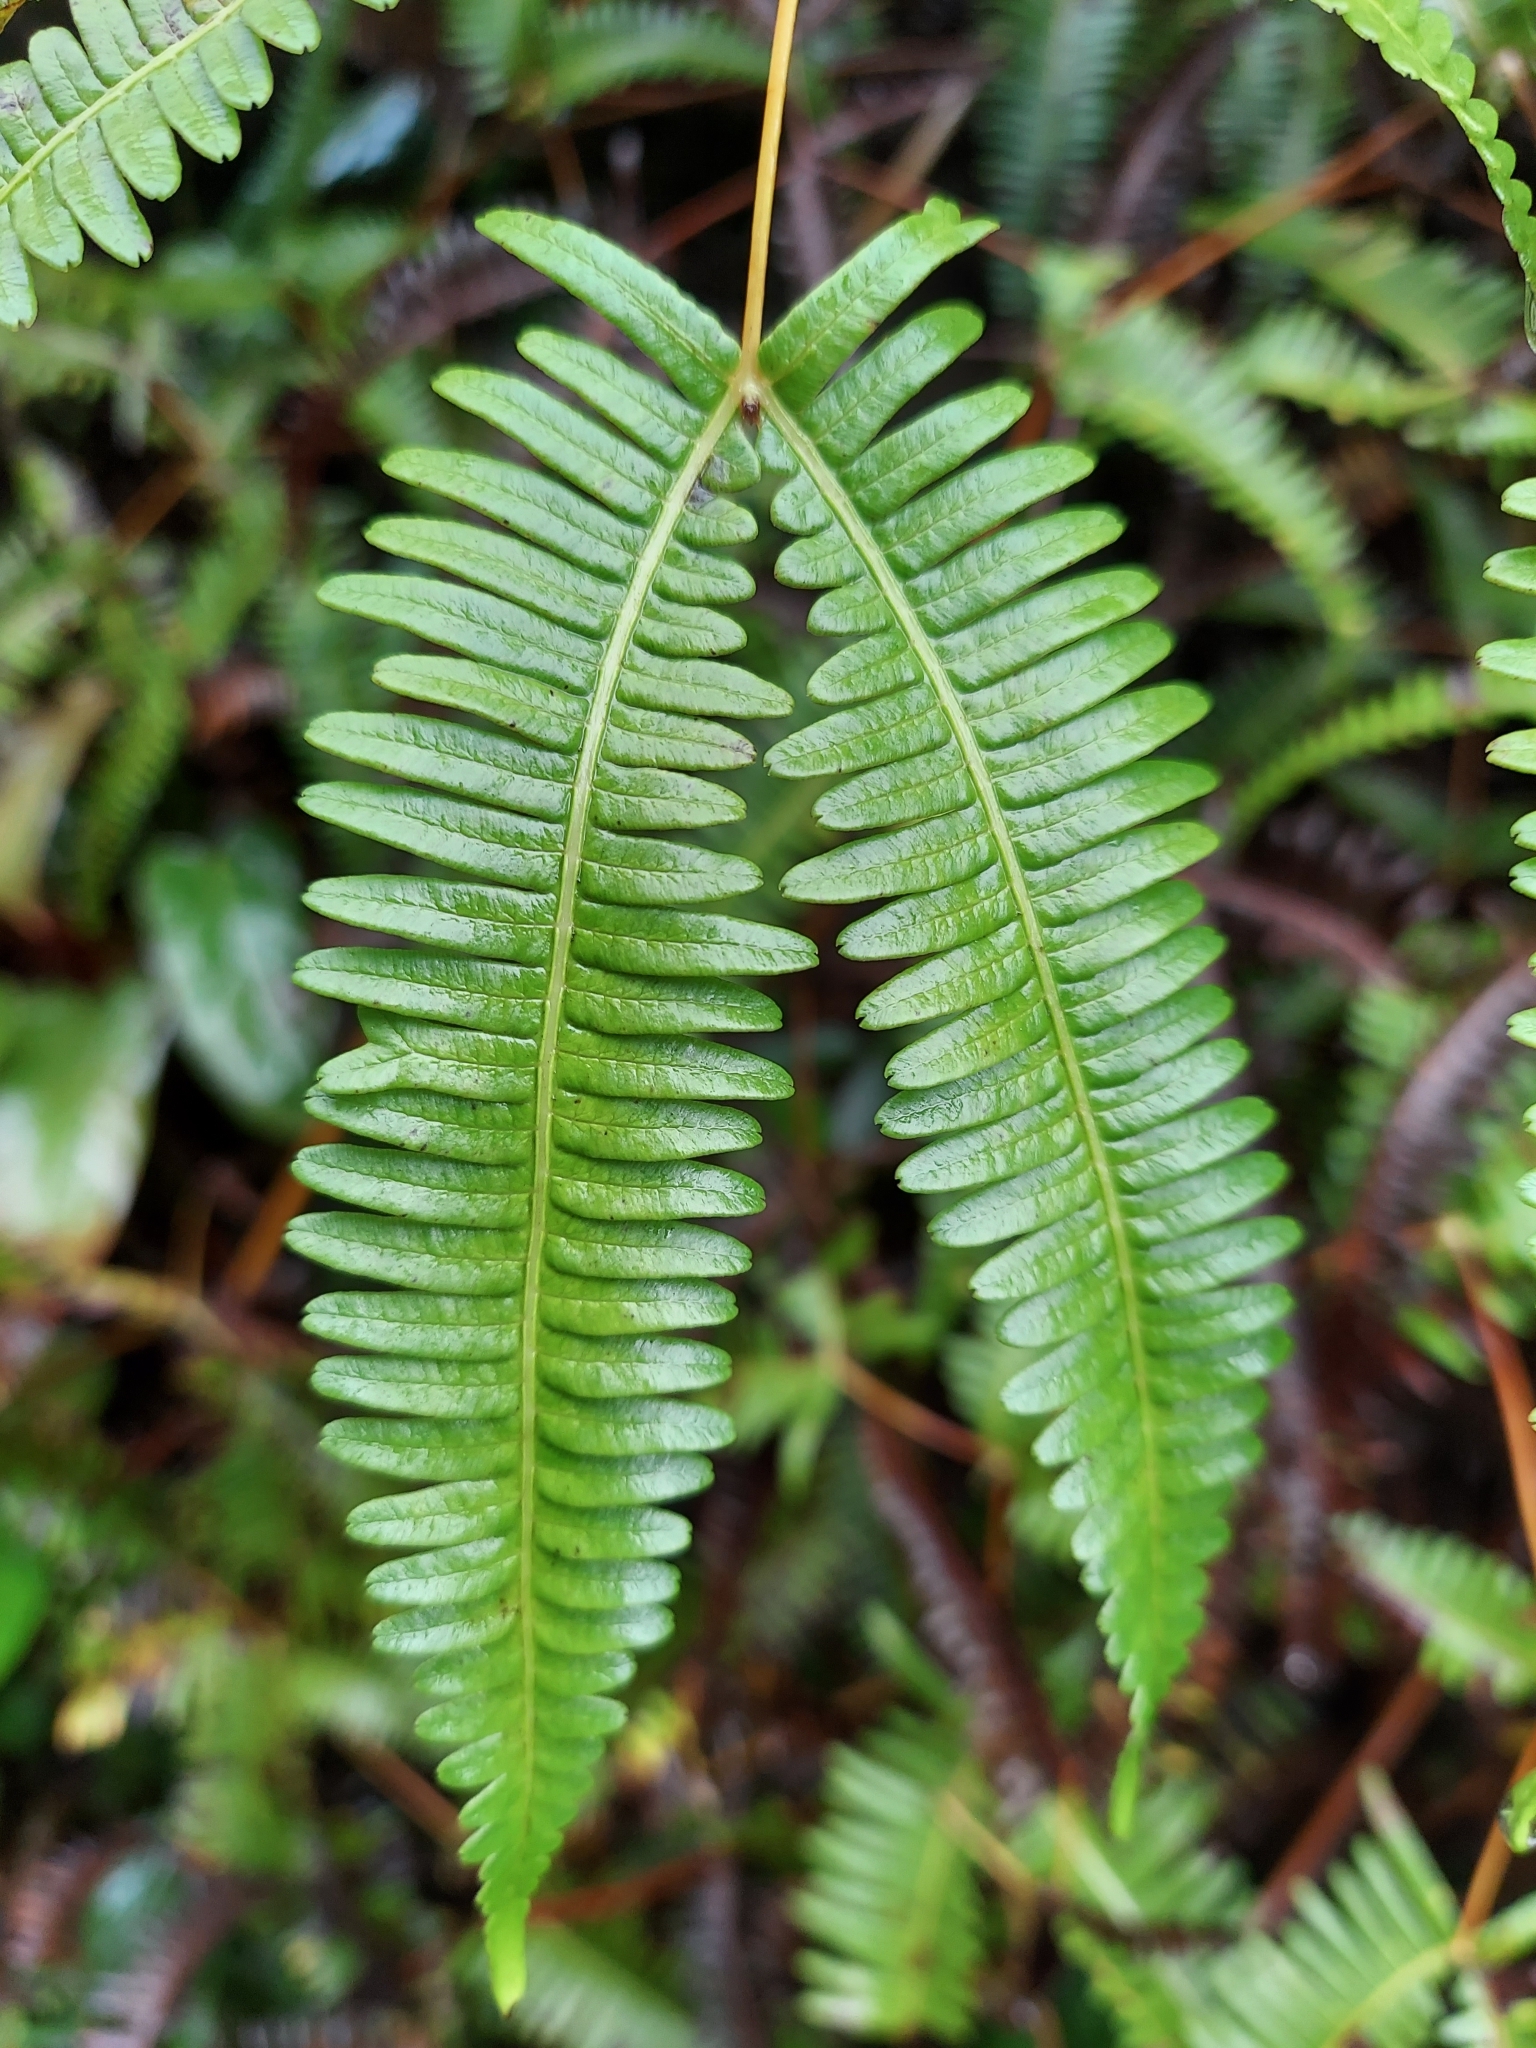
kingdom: Plantae
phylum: Tracheophyta
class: Polypodiopsida
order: Gleicheniales
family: Gleicheniaceae
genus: Dicranopteris
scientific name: Dicranopteris linearis
